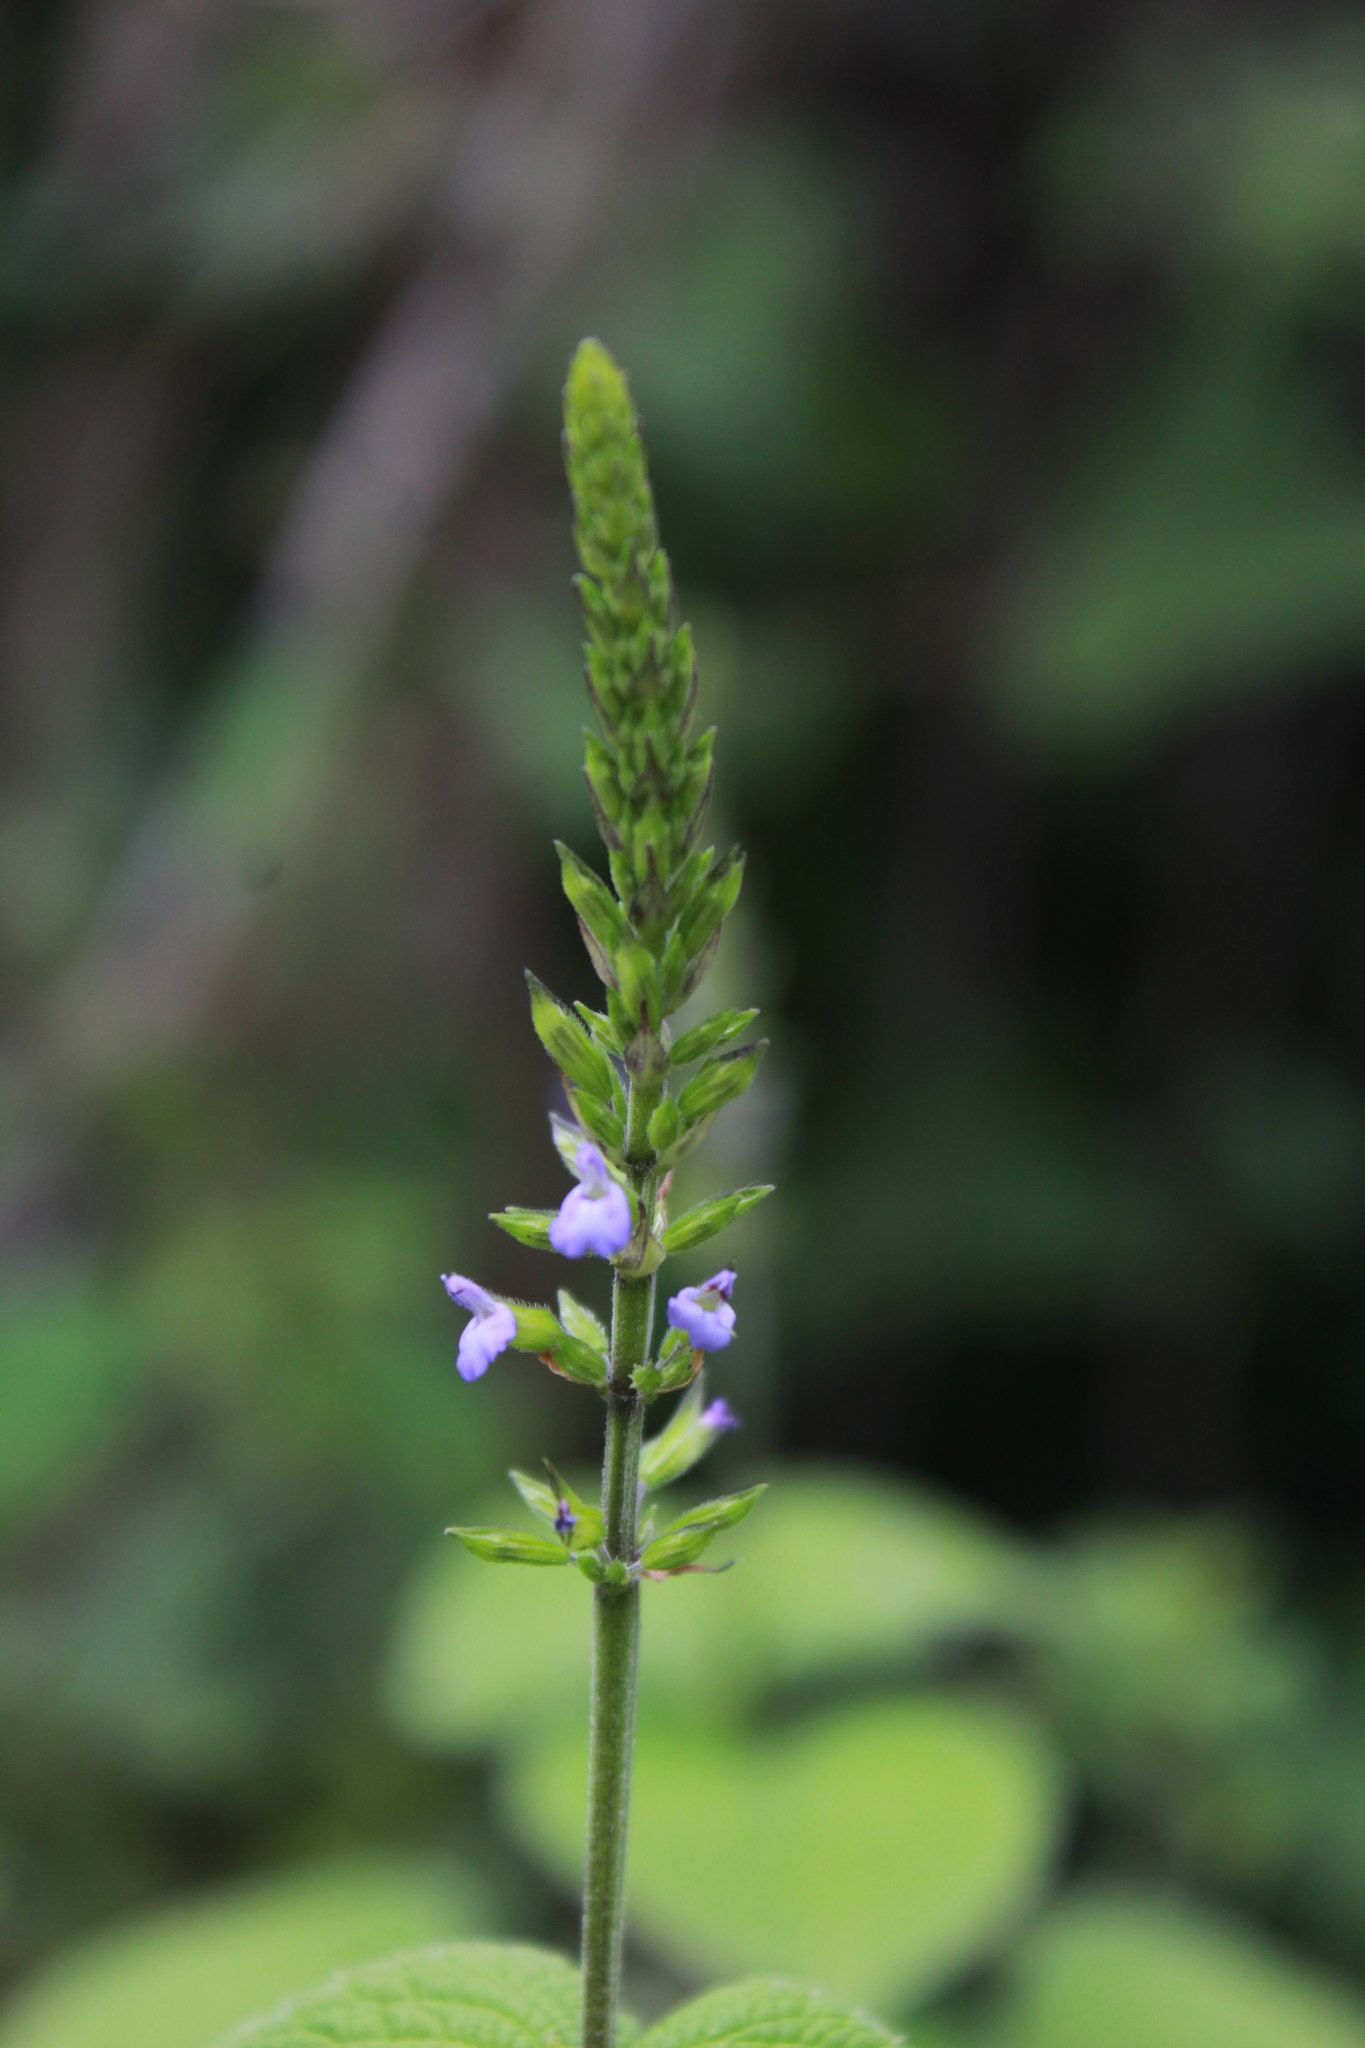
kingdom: Plantae
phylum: Tracheophyta
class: Magnoliopsida
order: Lamiales
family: Lamiaceae
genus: Salvia
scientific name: Salvia tiliifolia
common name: Lindenleaf sage
